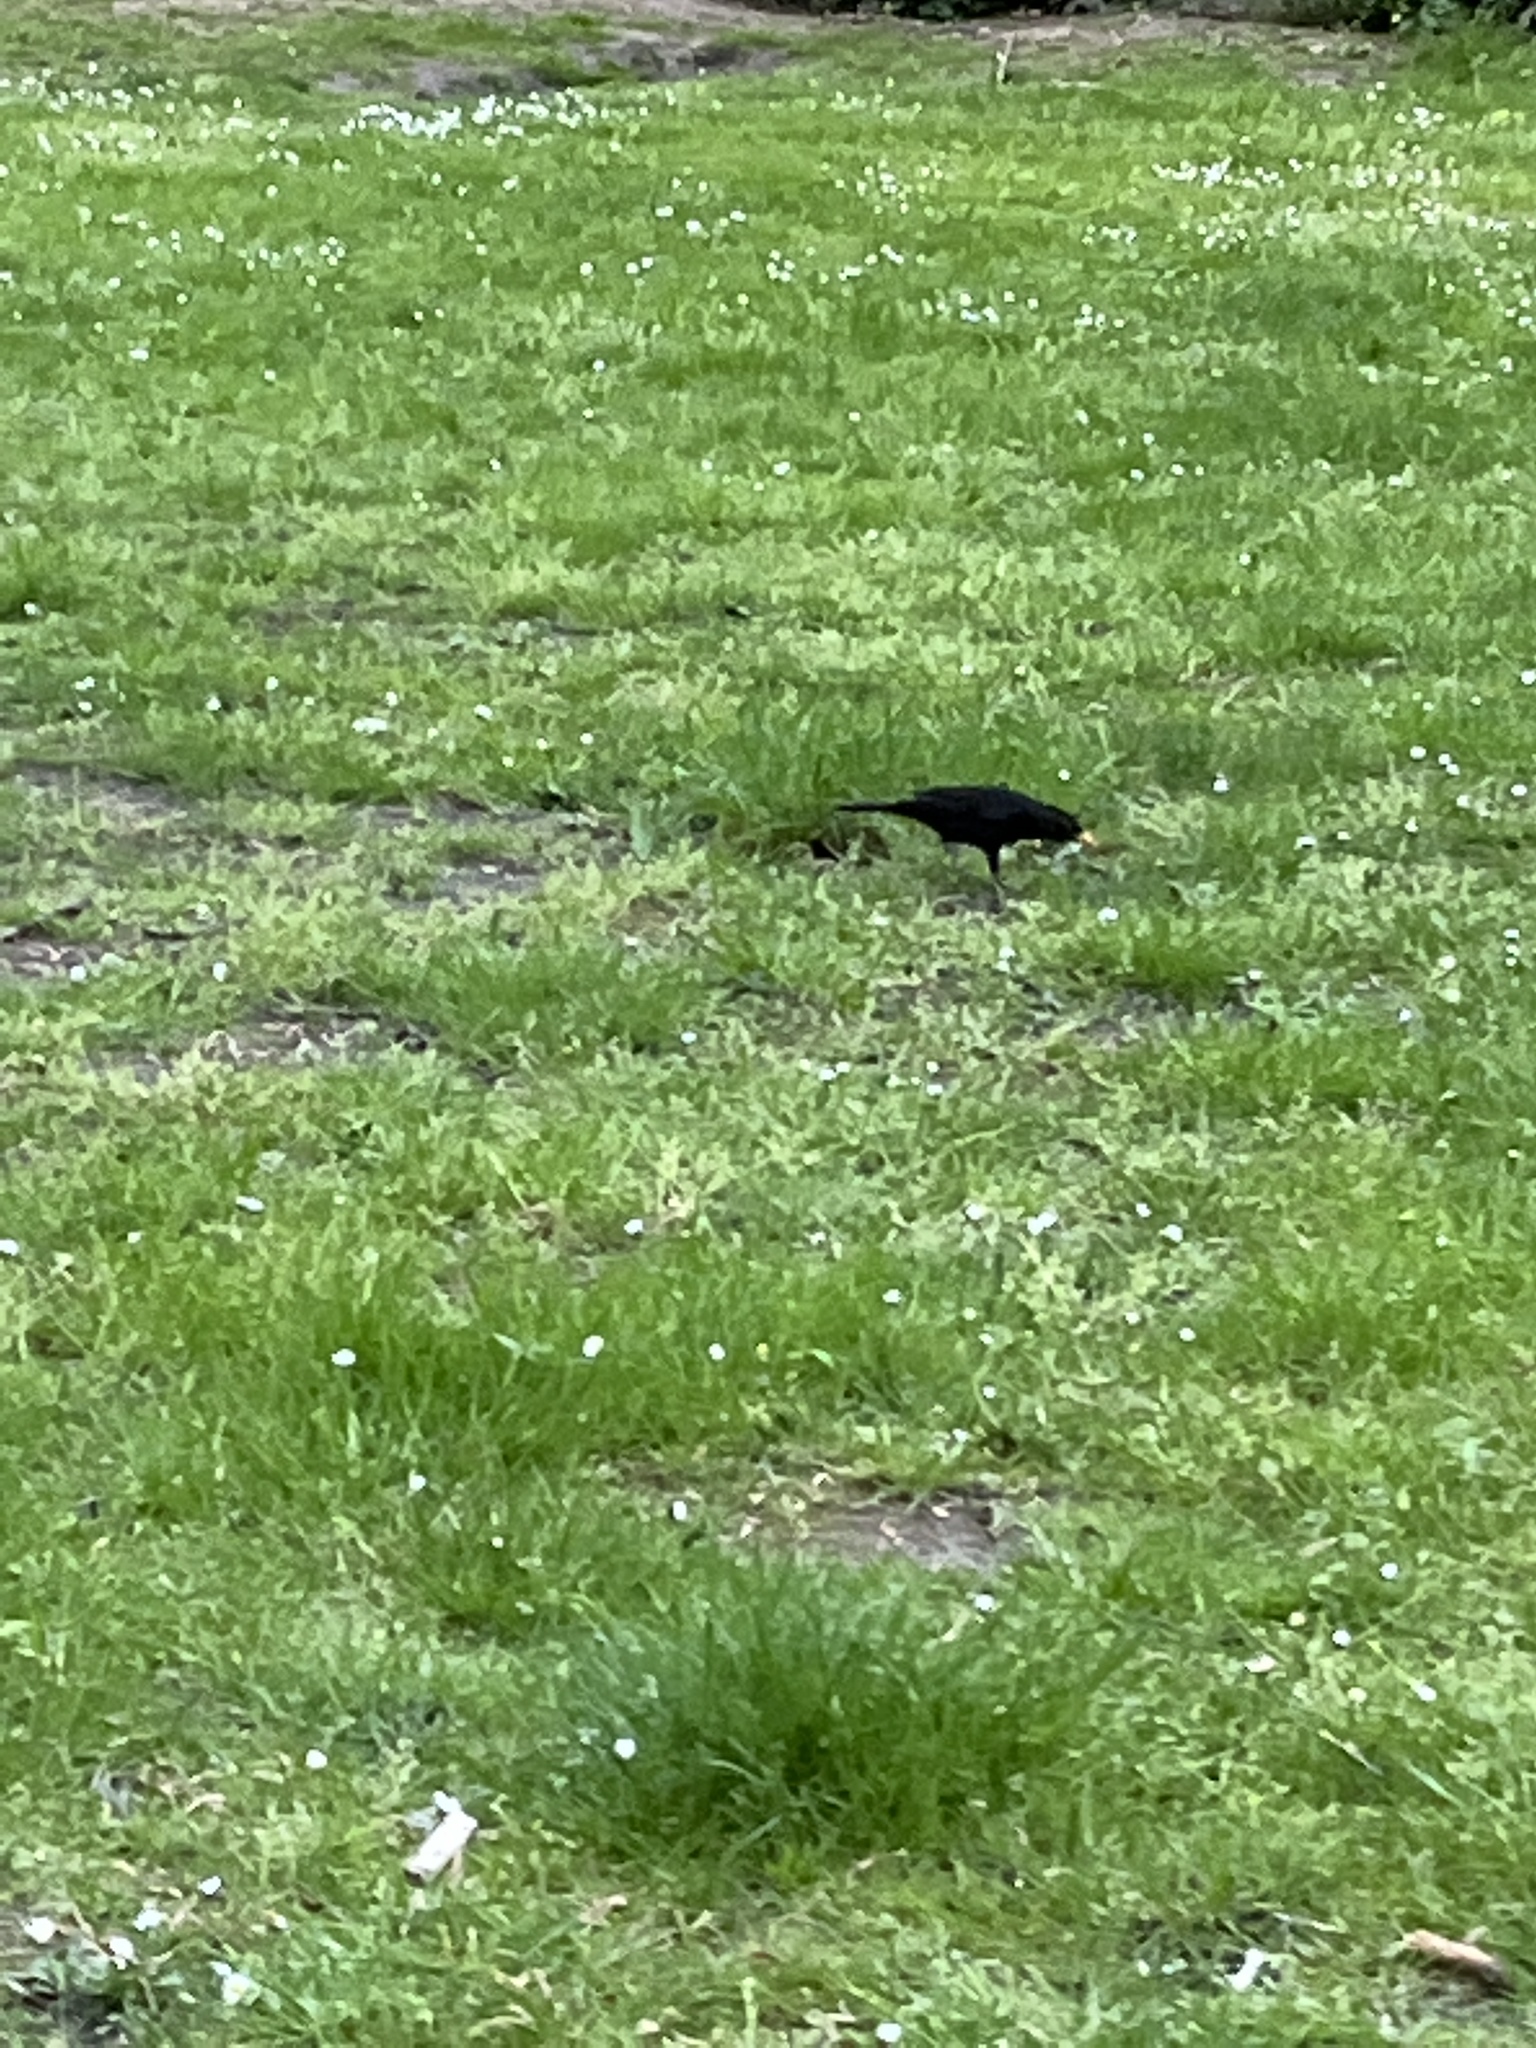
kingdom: Animalia
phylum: Chordata
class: Aves
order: Passeriformes
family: Turdidae
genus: Turdus
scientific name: Turdus merula
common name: Common blackbird
